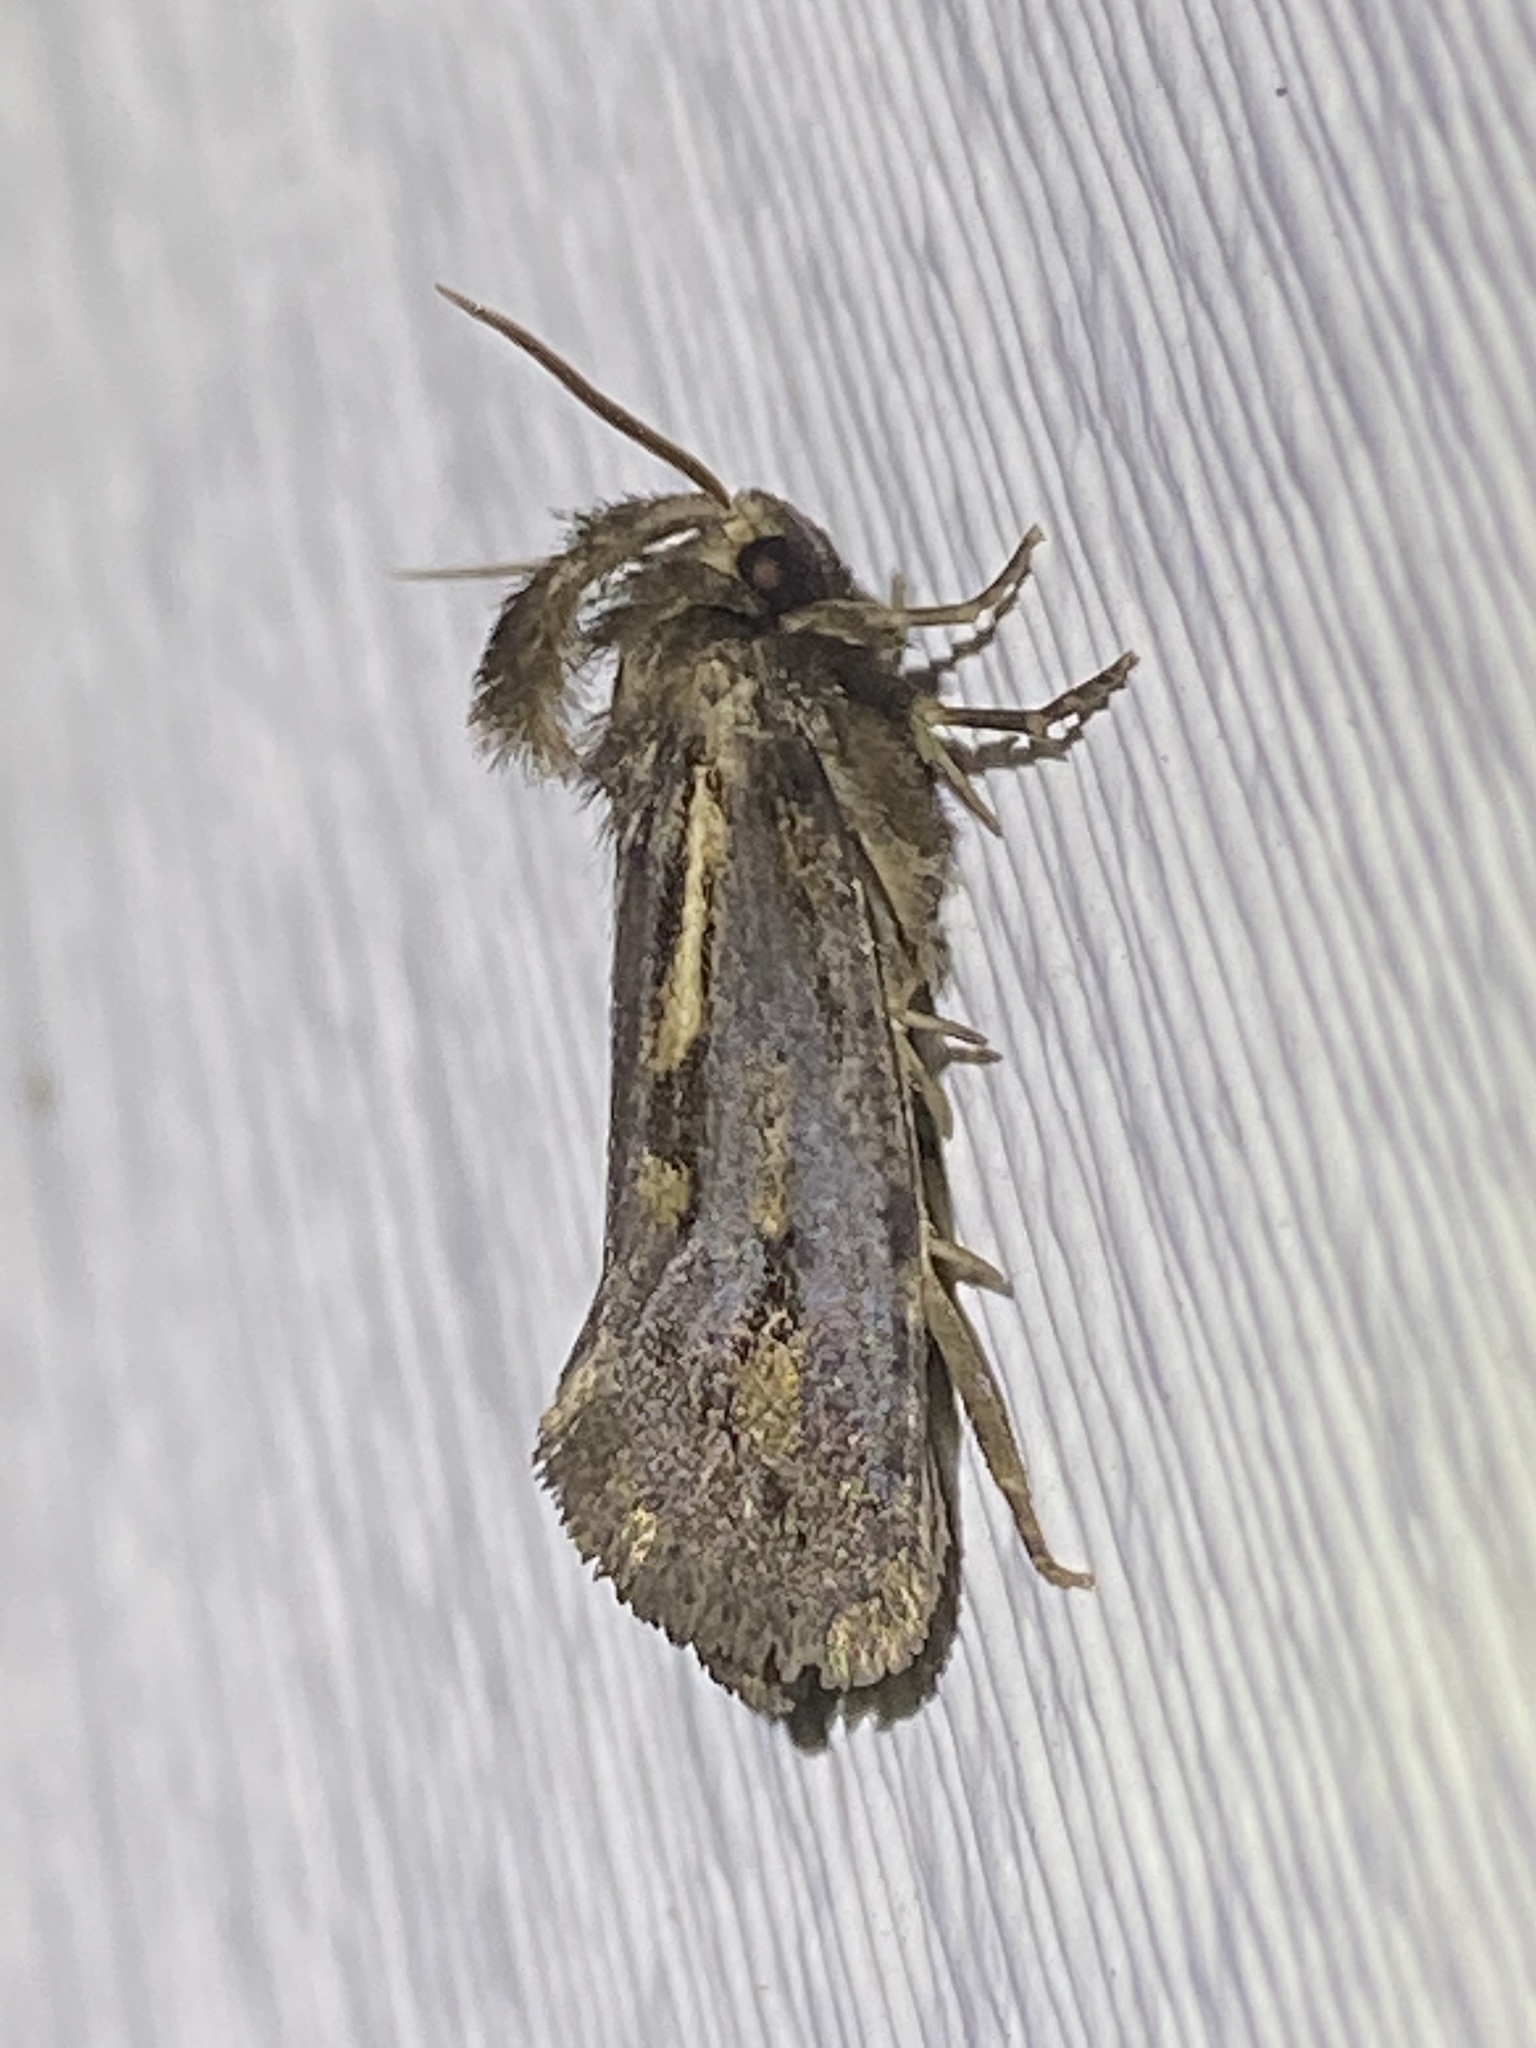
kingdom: Animalia
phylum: Arthropoda
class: Insecta
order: Lepidoptera
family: Tineidae
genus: Acrolophus
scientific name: Acrolophus popeanella
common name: Clemens' grass tubeworm moth
